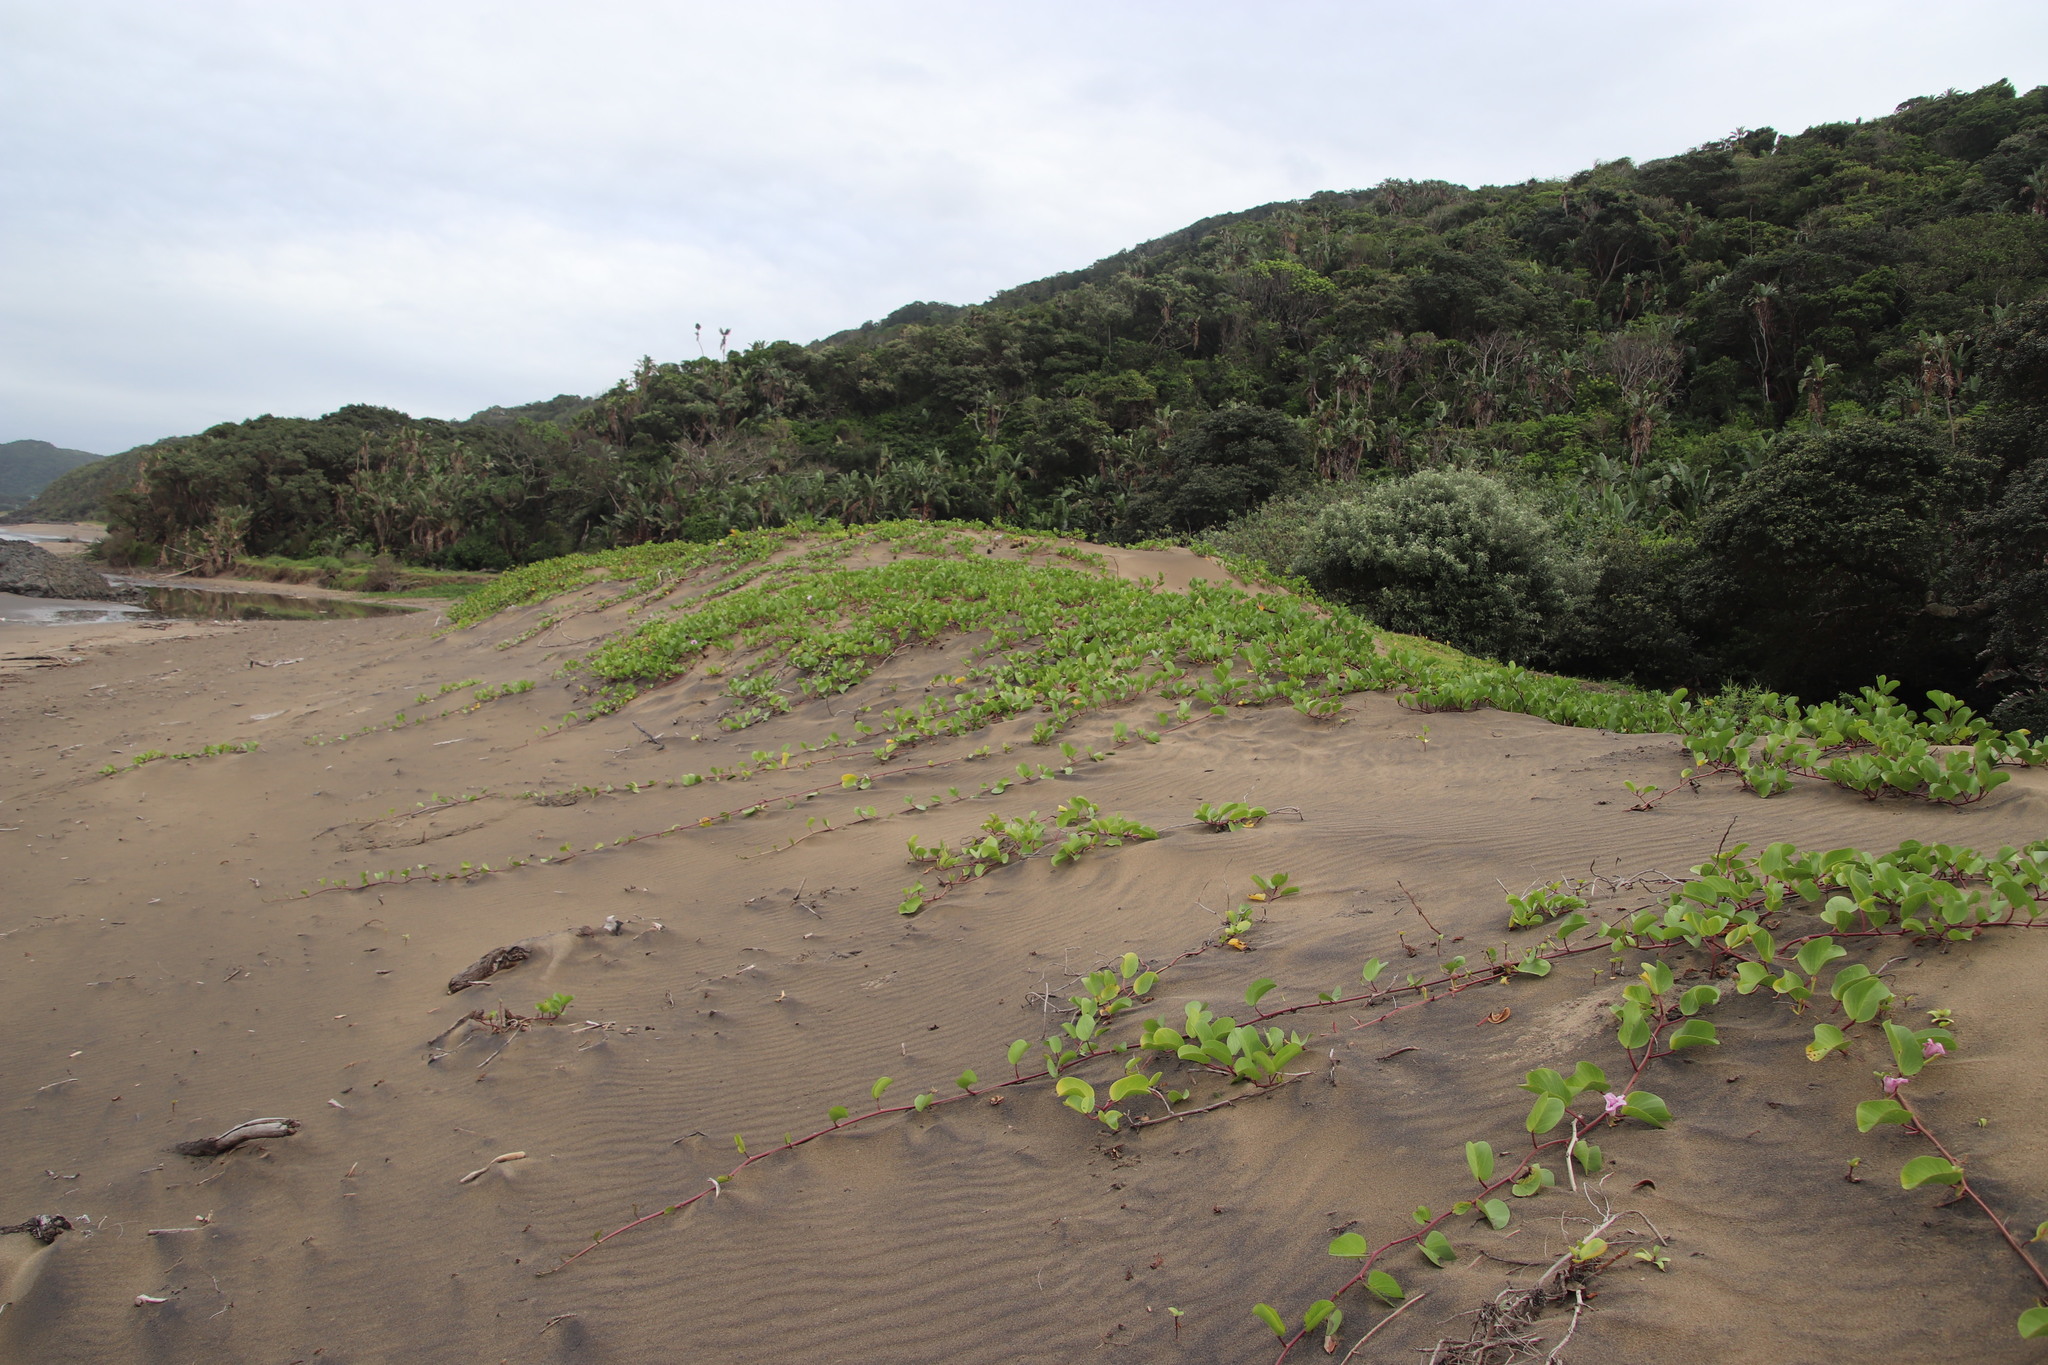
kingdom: Plantae
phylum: Tracheophyta
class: Magnoliopsida
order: Solanales
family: Convolvulaceae
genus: Ipomoea
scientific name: Ipomoea pes-caprae
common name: Beach morning glory
